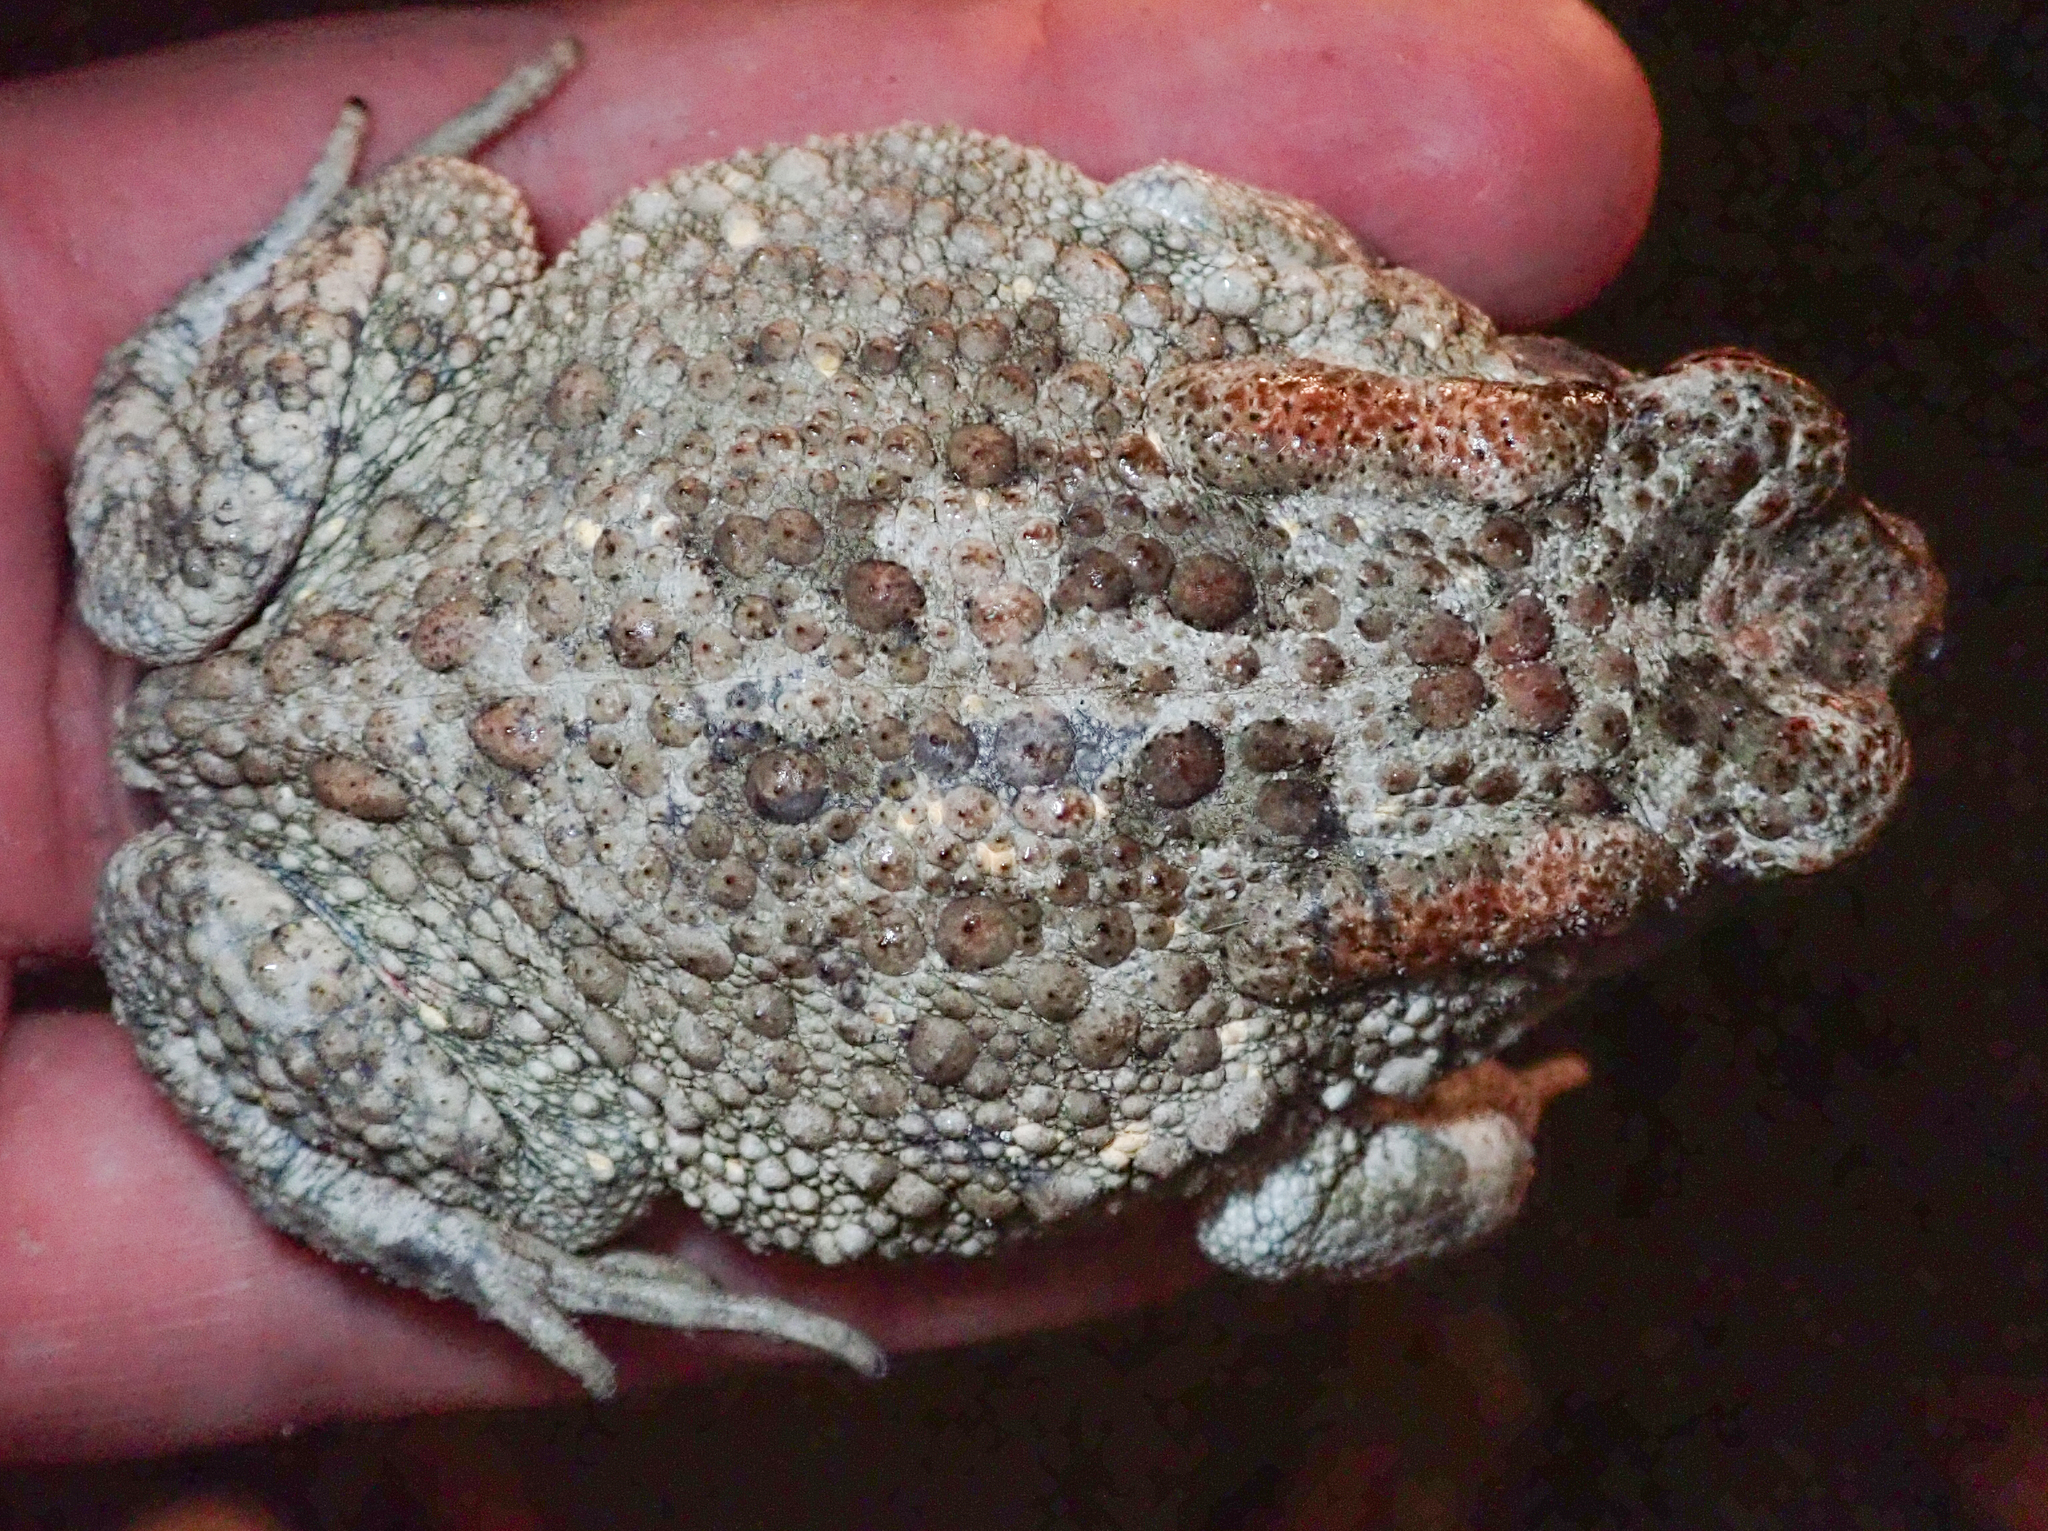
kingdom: Animalia
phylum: Chordata
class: Amphibia
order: Anura
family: Bufonidae
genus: Sclerophrys
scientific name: Sclerophrys gutturalis
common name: African common toad
